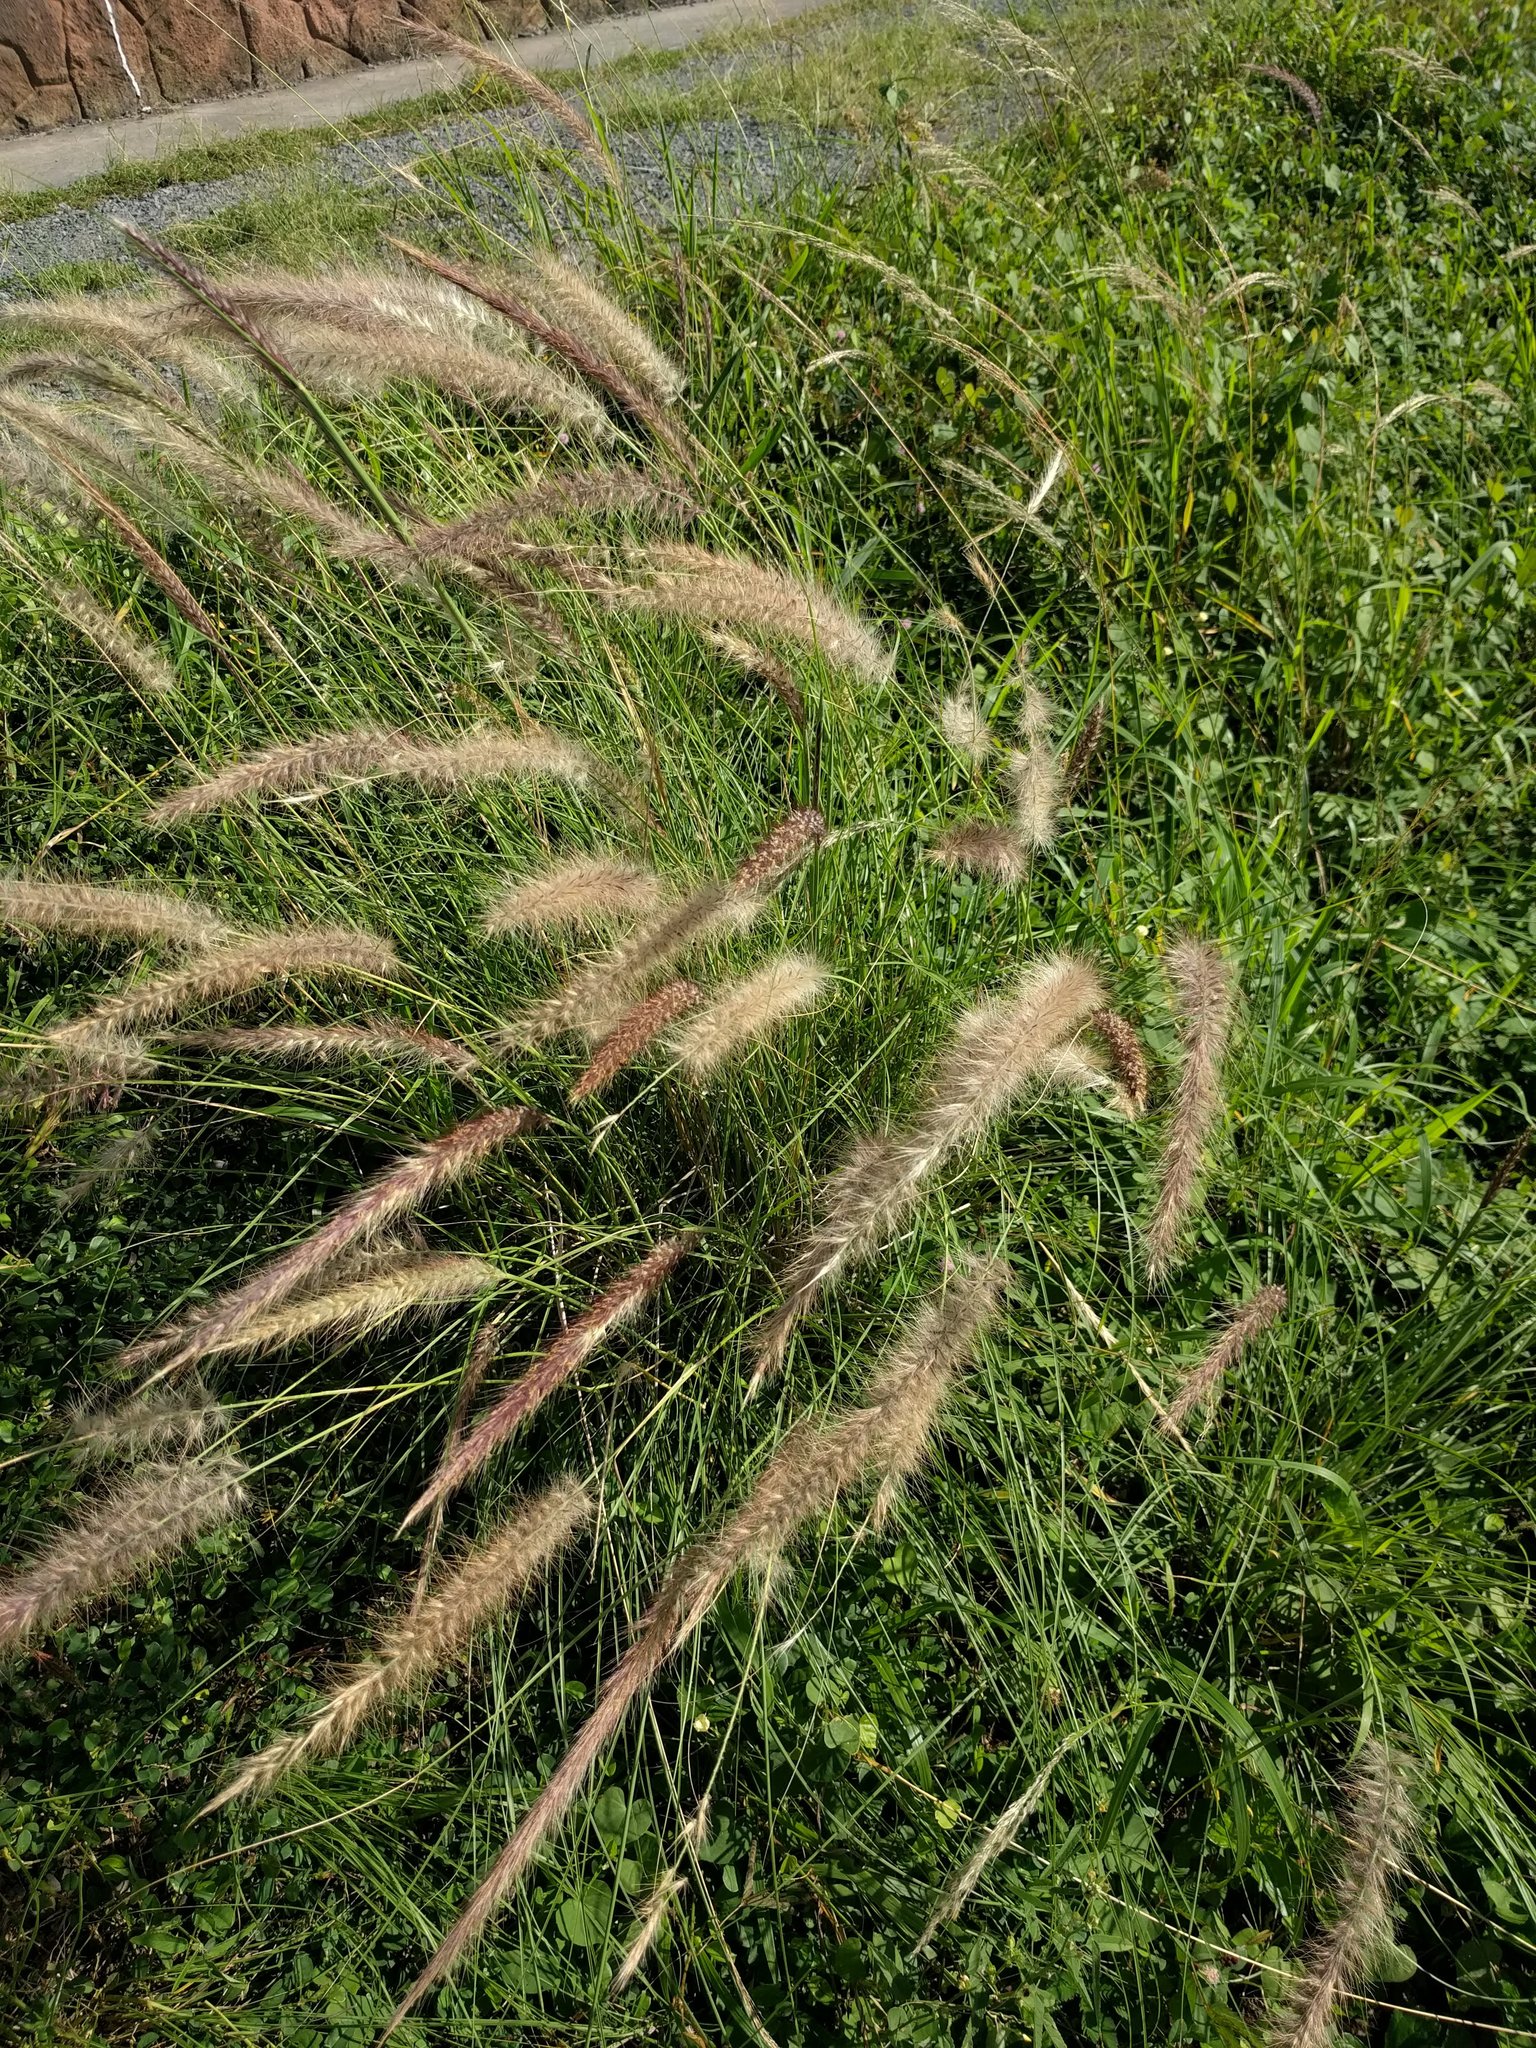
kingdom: Plantae
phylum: Tracheophyta
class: Liliopsida
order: Poales
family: Poaceae
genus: Cenchrus
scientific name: Cenchrus setaceus
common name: Crimson fountaingrass
